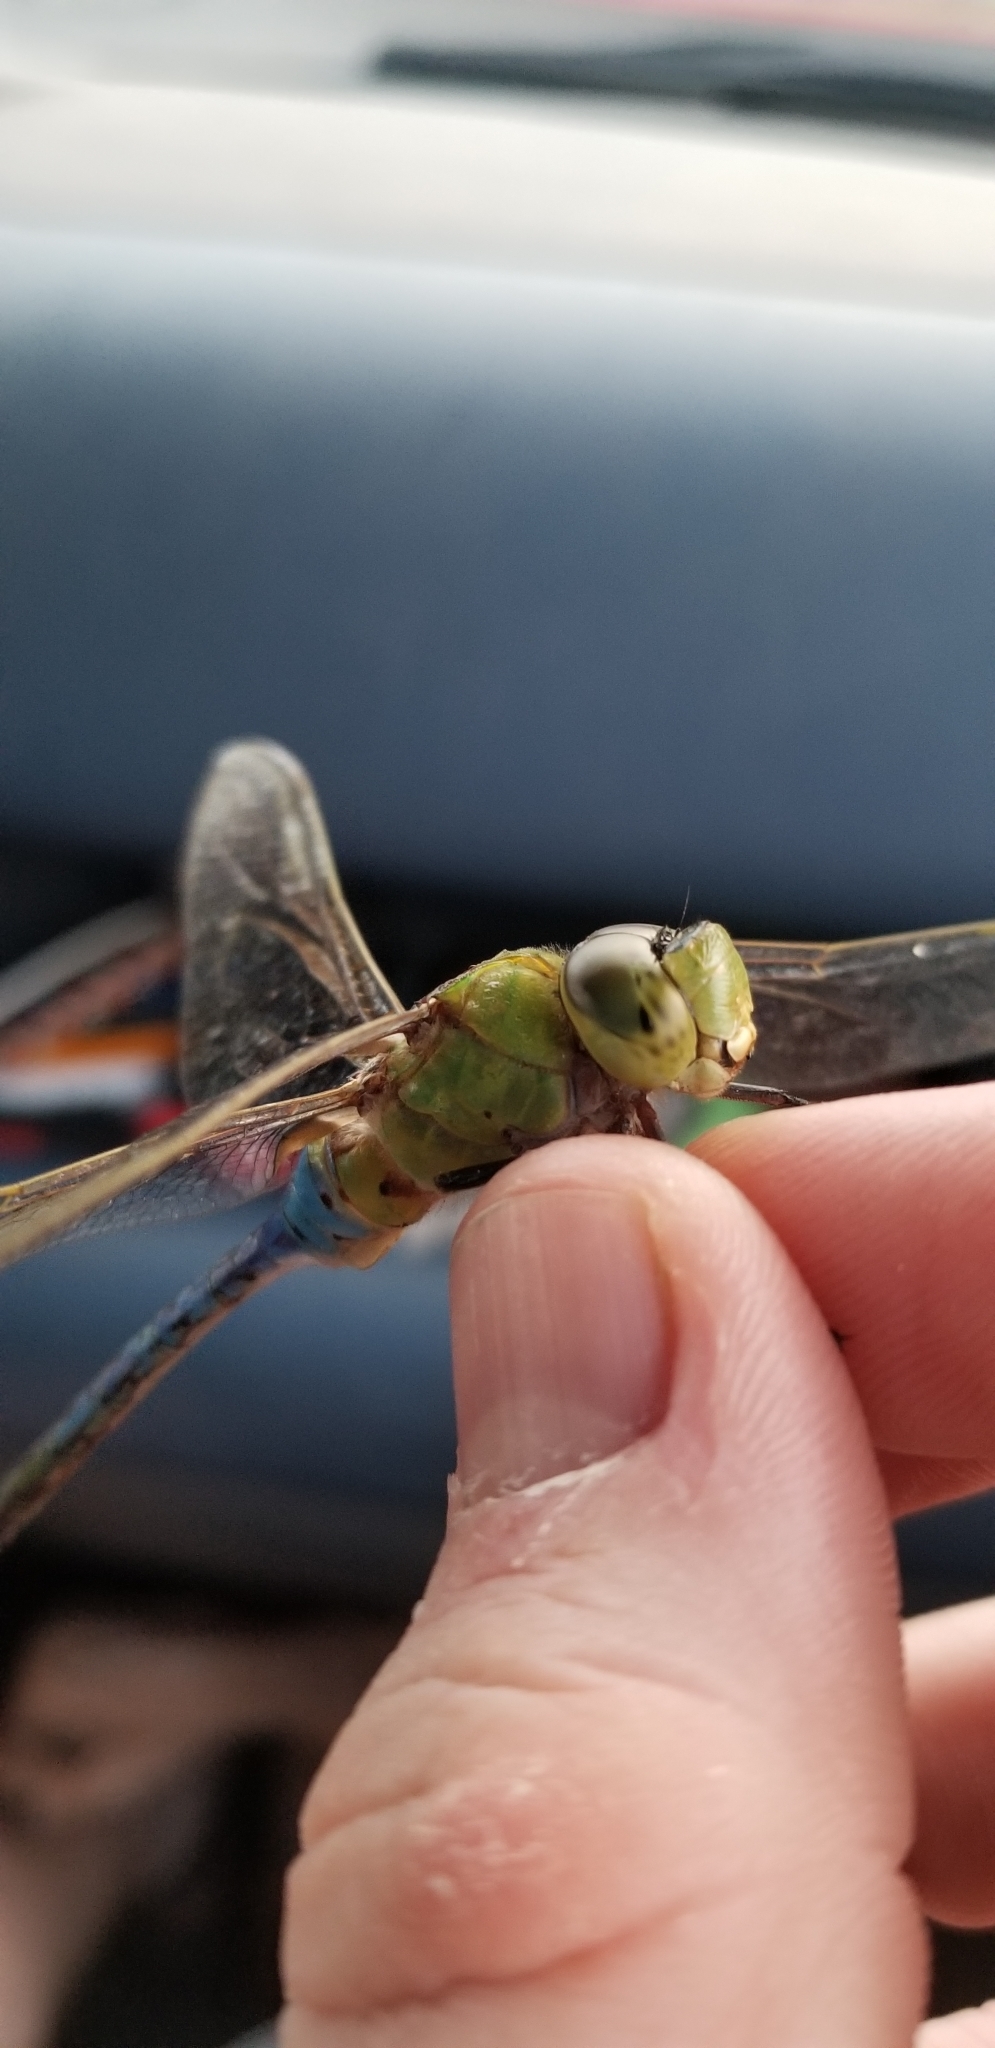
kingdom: Animalia
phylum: Arthropoda
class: Insecta
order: Odonata
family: Aeshnidae
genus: Anax
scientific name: Anax junius
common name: Common green darner
